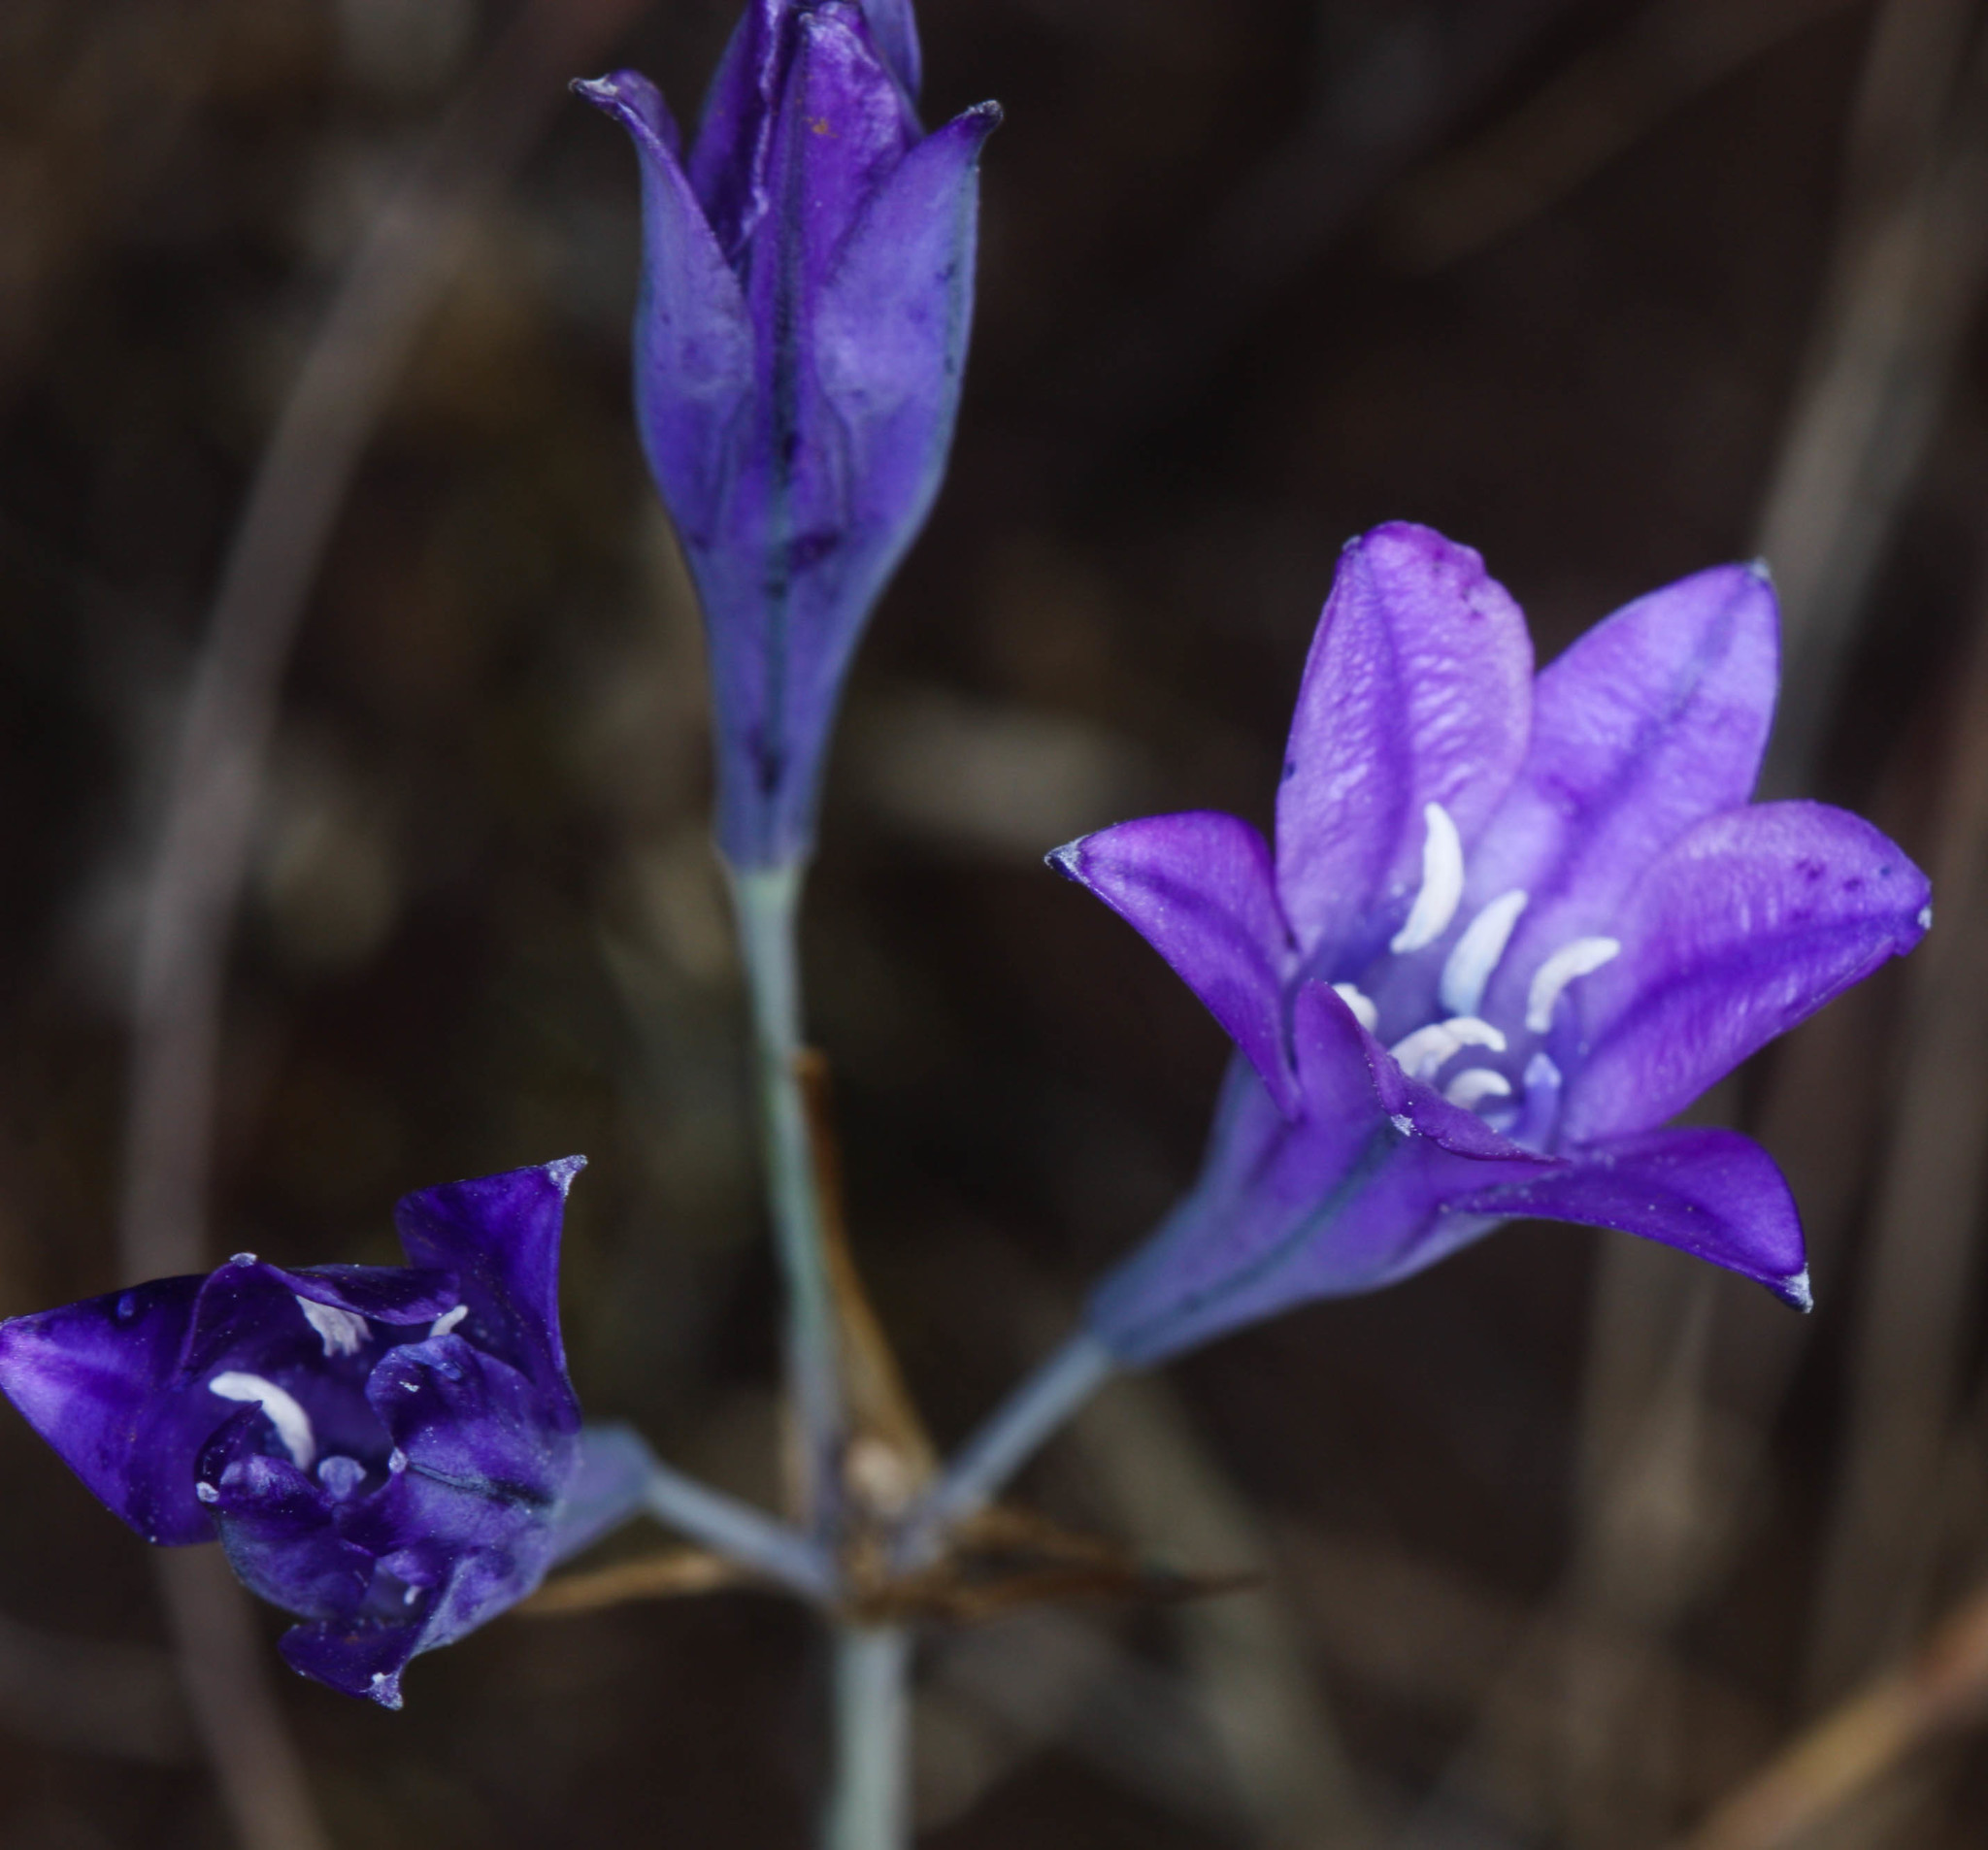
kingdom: Plantae
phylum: Tracheophyta
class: Liliopsida
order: Asparagales
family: Asparagaceae
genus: Triteleia
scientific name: Triteleia laxa
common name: Triplet-lily
